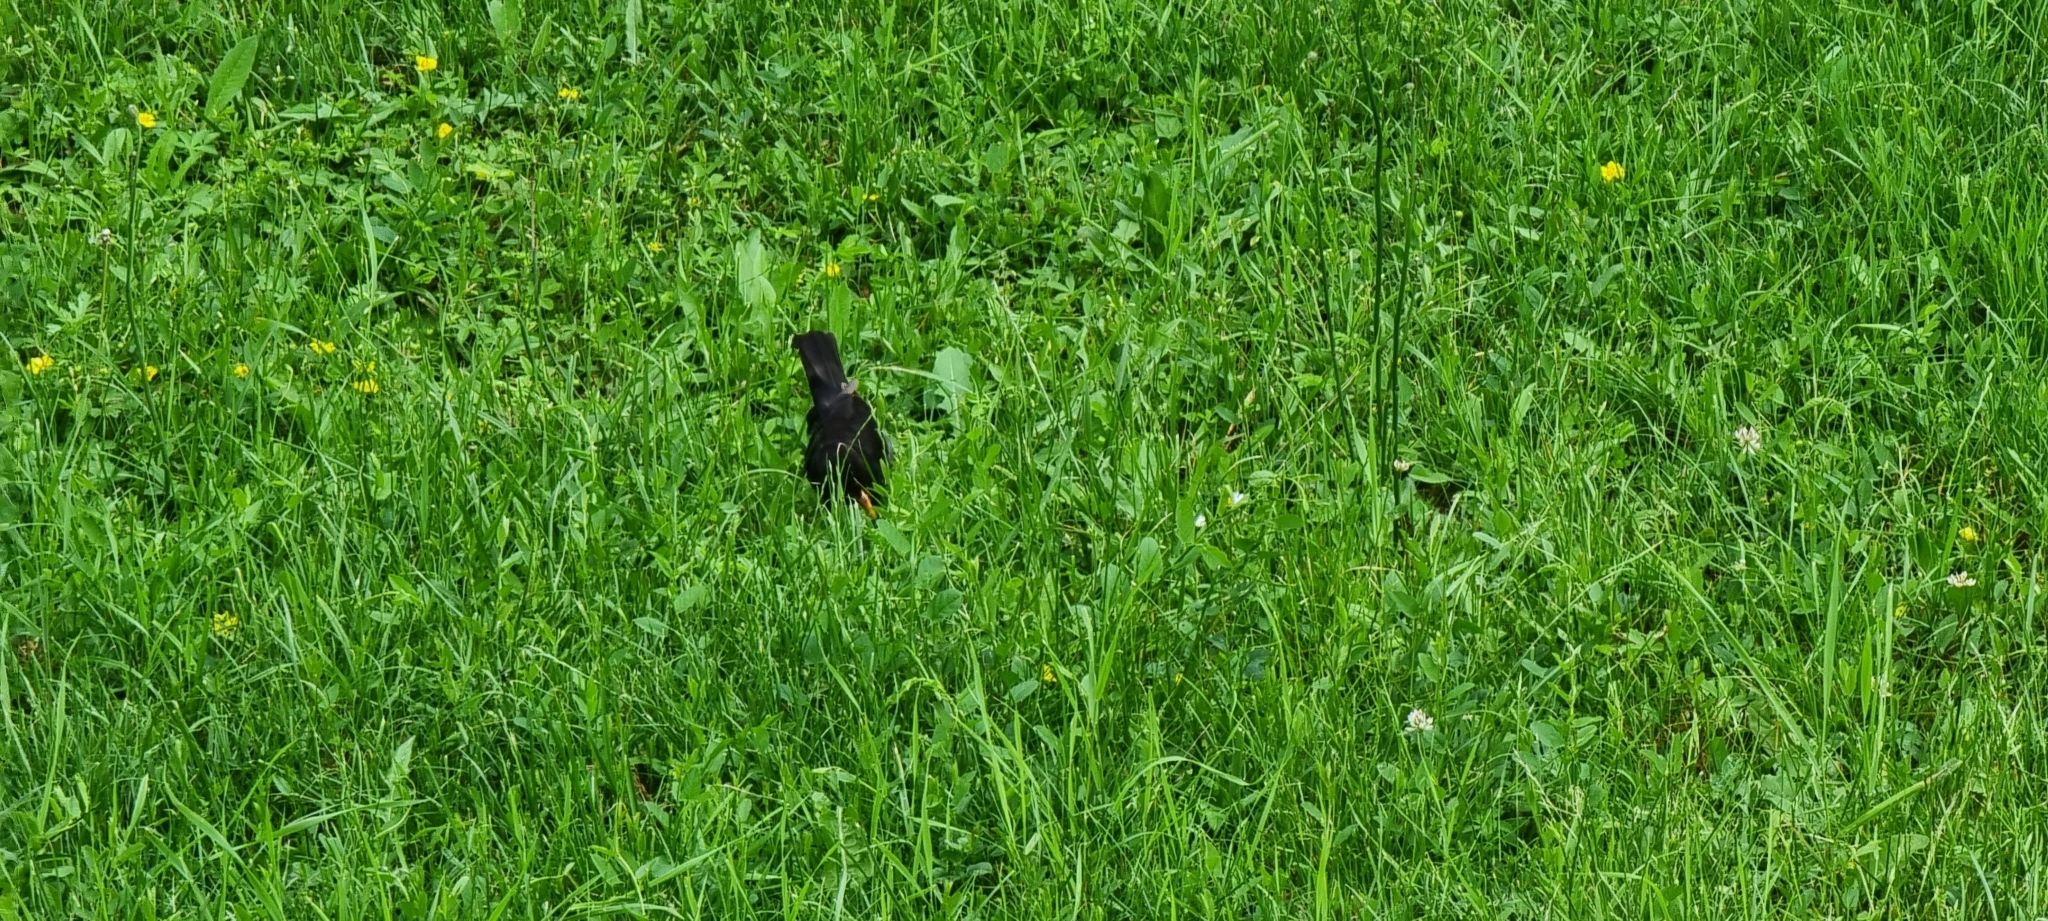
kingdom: Animalia
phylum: Chordata
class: Aves
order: Passeriformes
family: Turdidae
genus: Turdus
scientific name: Turdus merula
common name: Common blackbird
